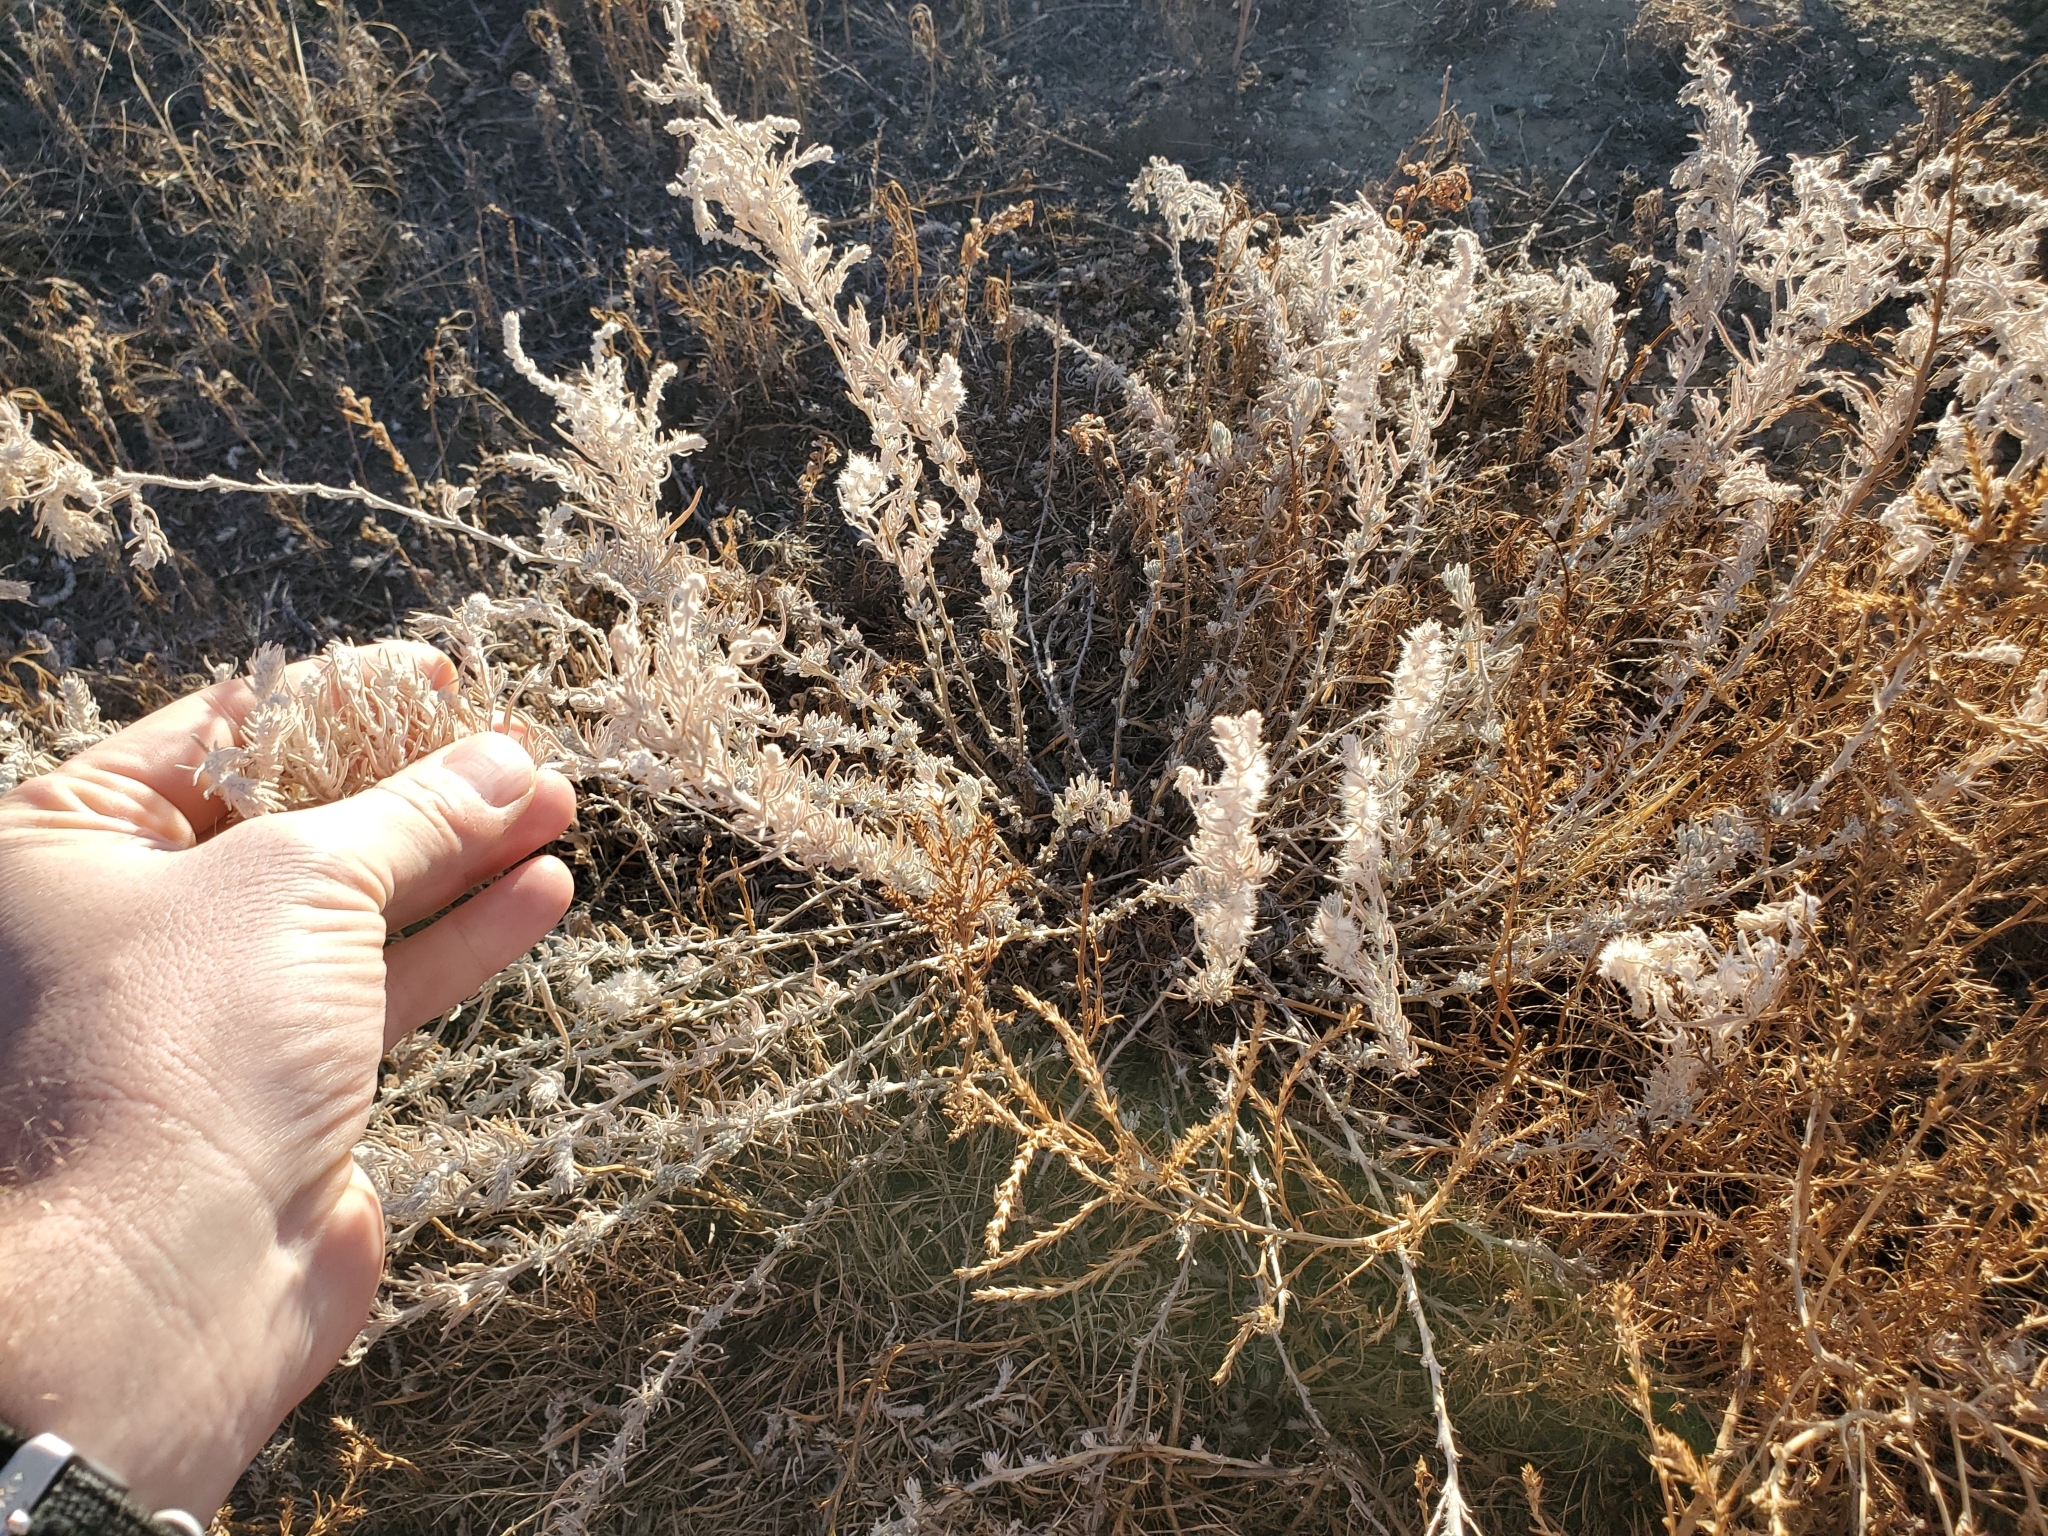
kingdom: Plantae
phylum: Tracheophyta
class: Magnoliopsida
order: Caryophyllales
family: Amaranthaceae
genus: Krascheninnikovia
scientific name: Krascheninnikovia lanata
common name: Winterfat
